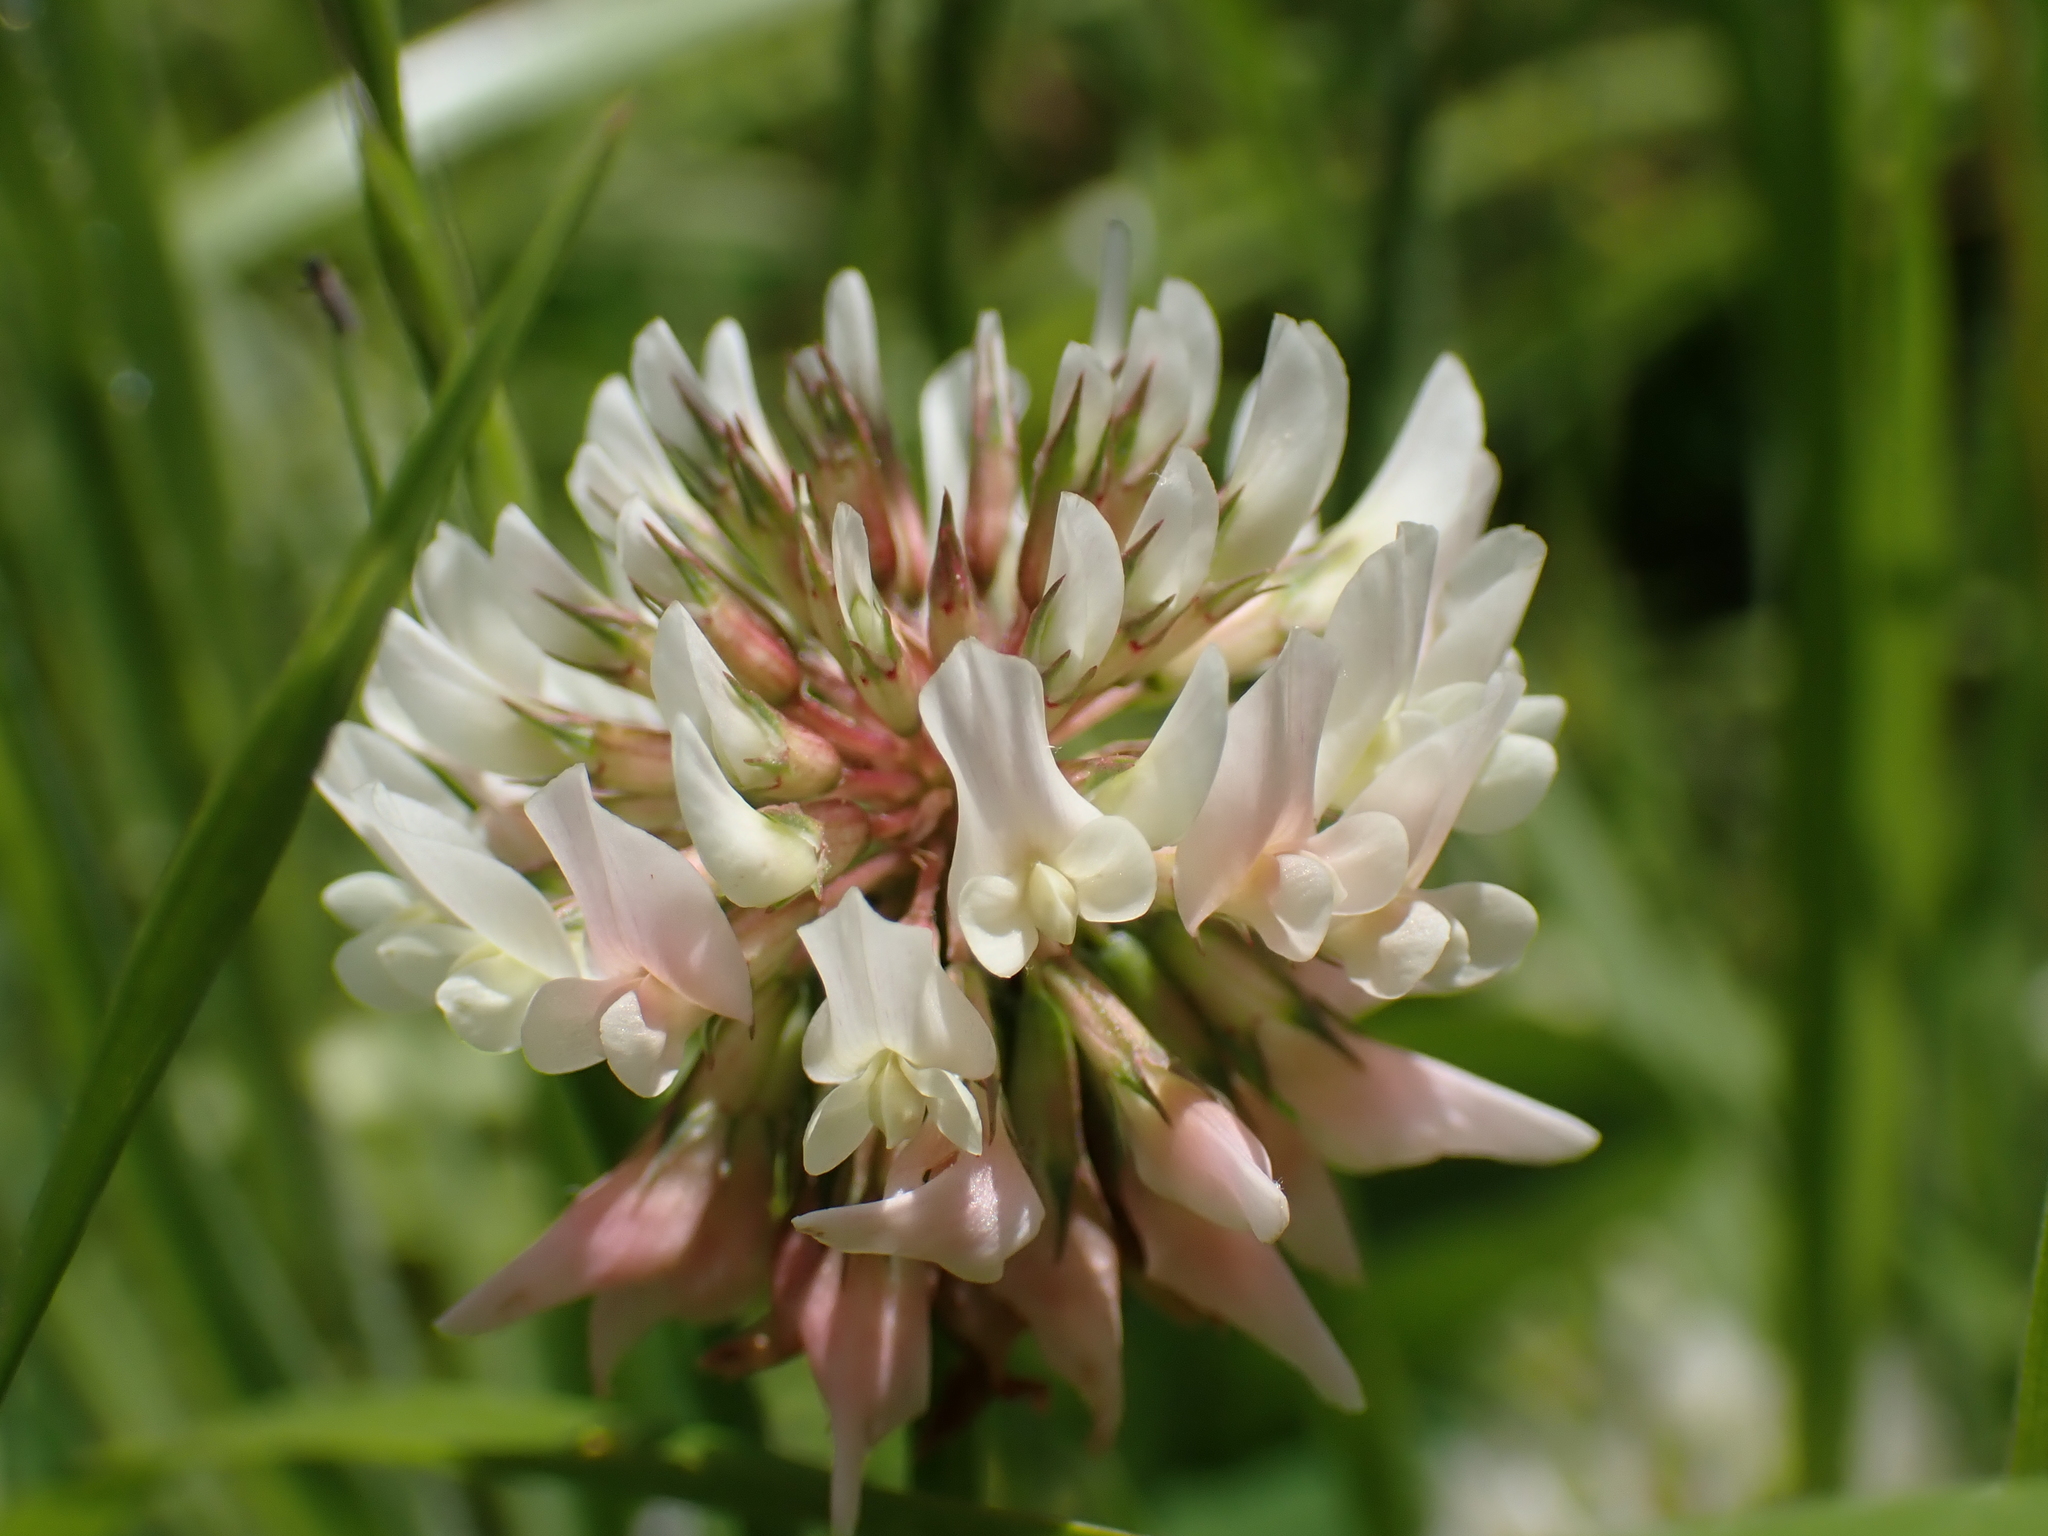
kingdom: Plantae
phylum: Tracheophyta
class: Magnoliopsida
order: Fabales
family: Fabaceae
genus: Trifolium
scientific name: Trifolium repens
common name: White clover
